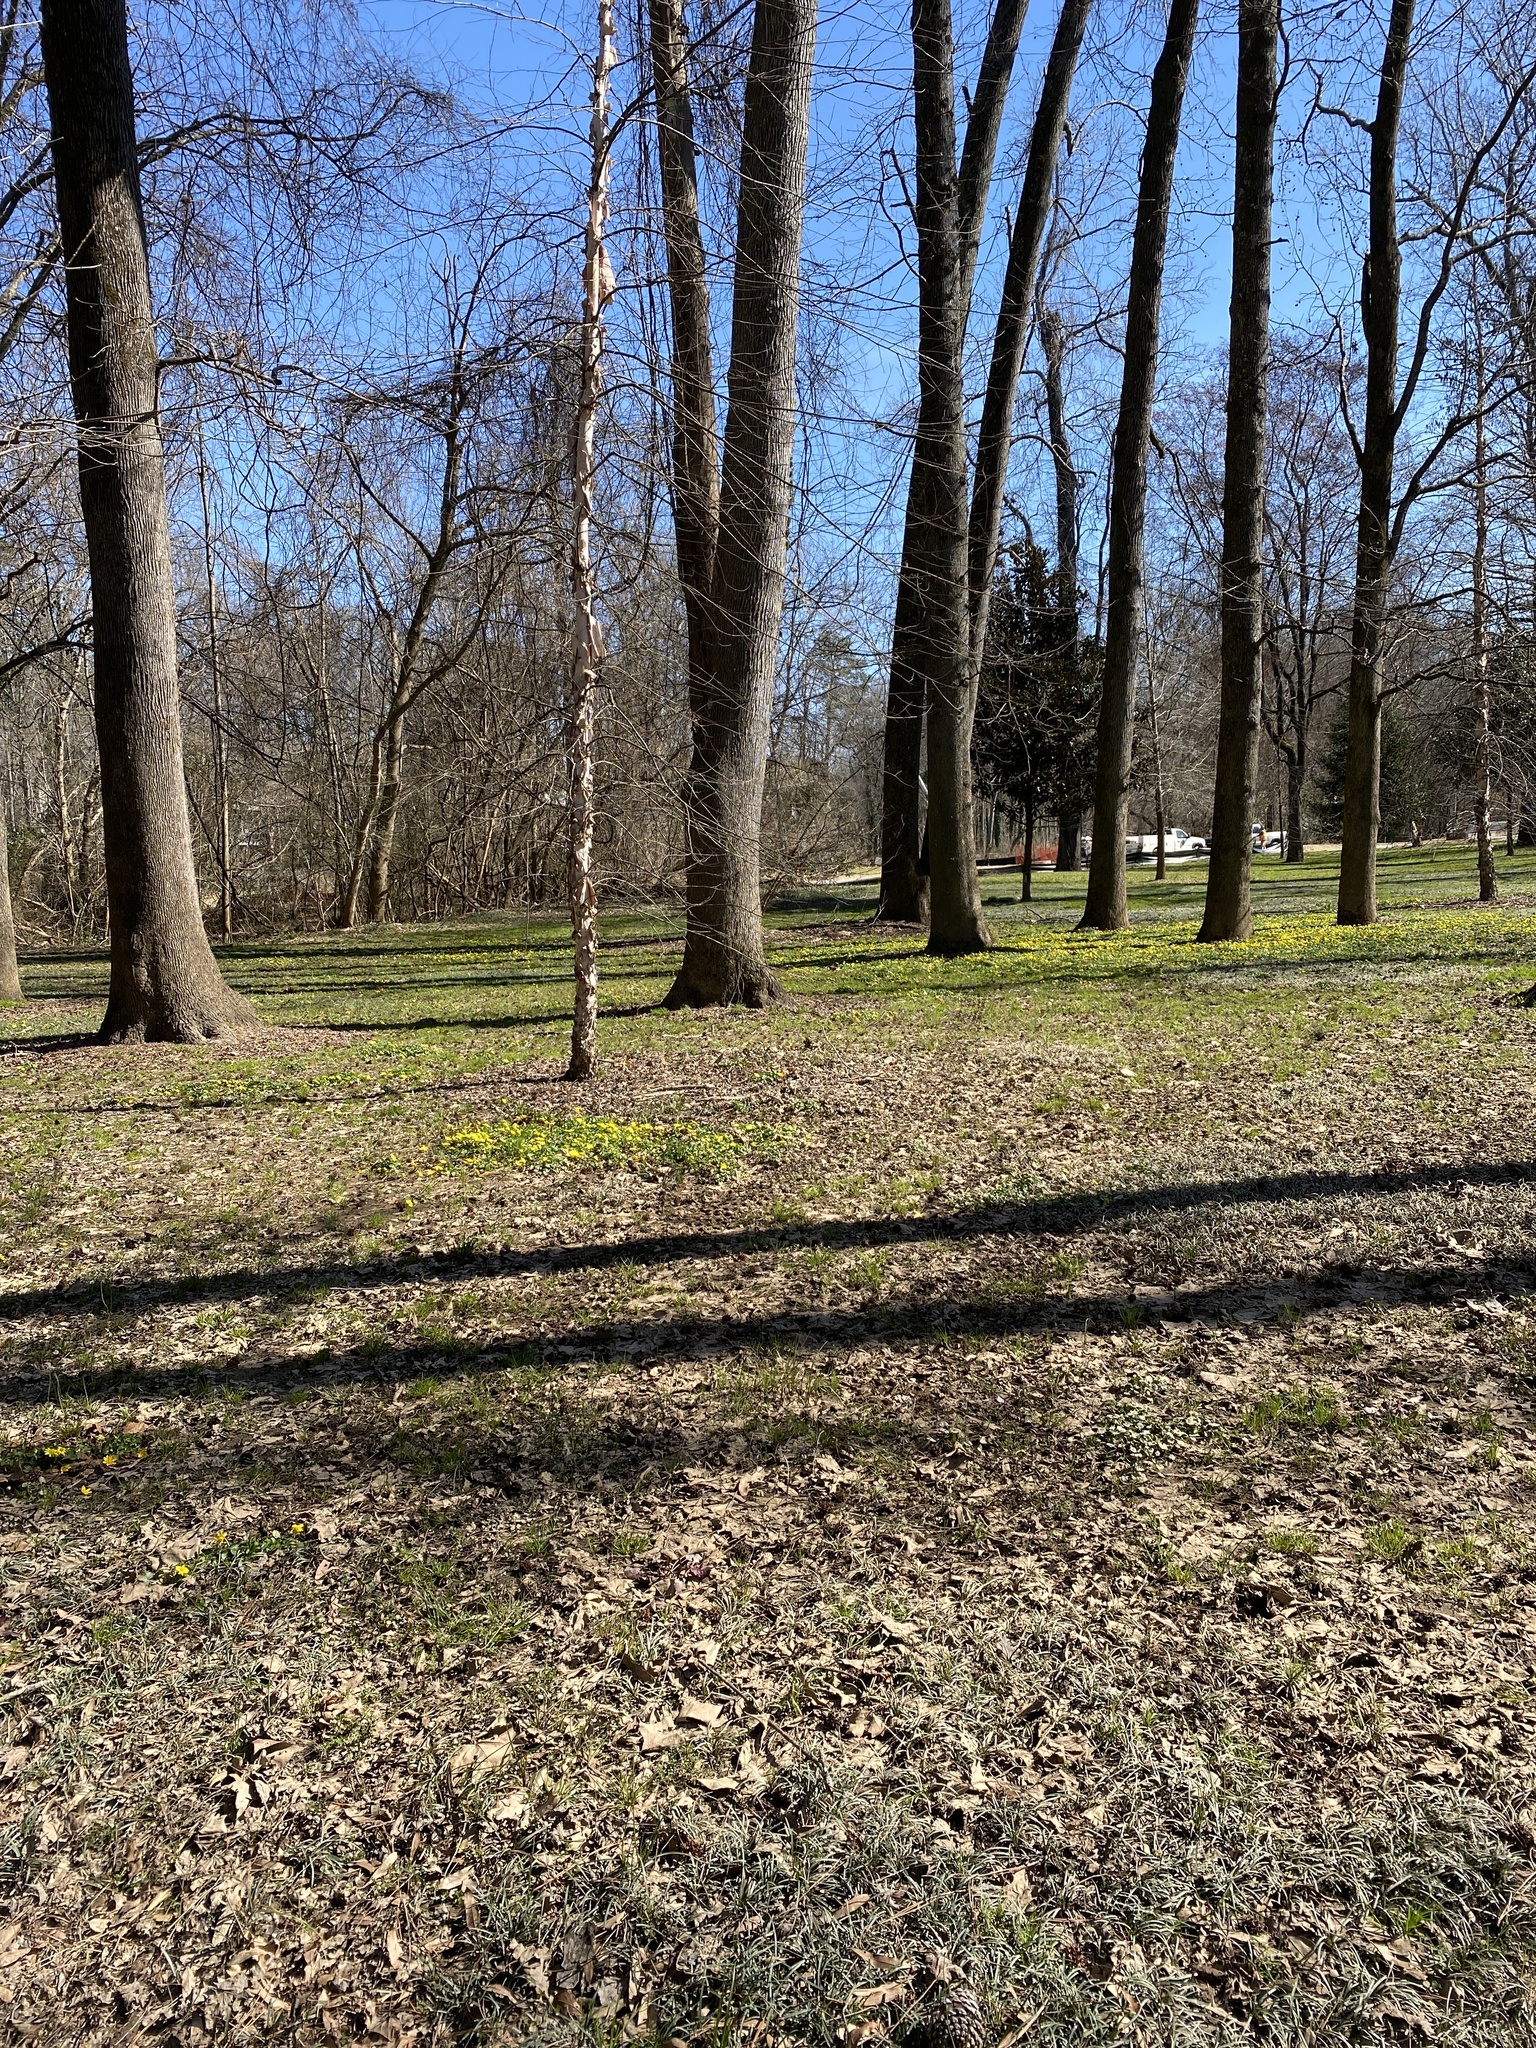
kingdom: Plantae
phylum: Tracheophyta
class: Magnoliopsida
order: Ranunculales
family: Ranunculaceae
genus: Ficaria
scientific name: Ficaria verna
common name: Lesser celandine
